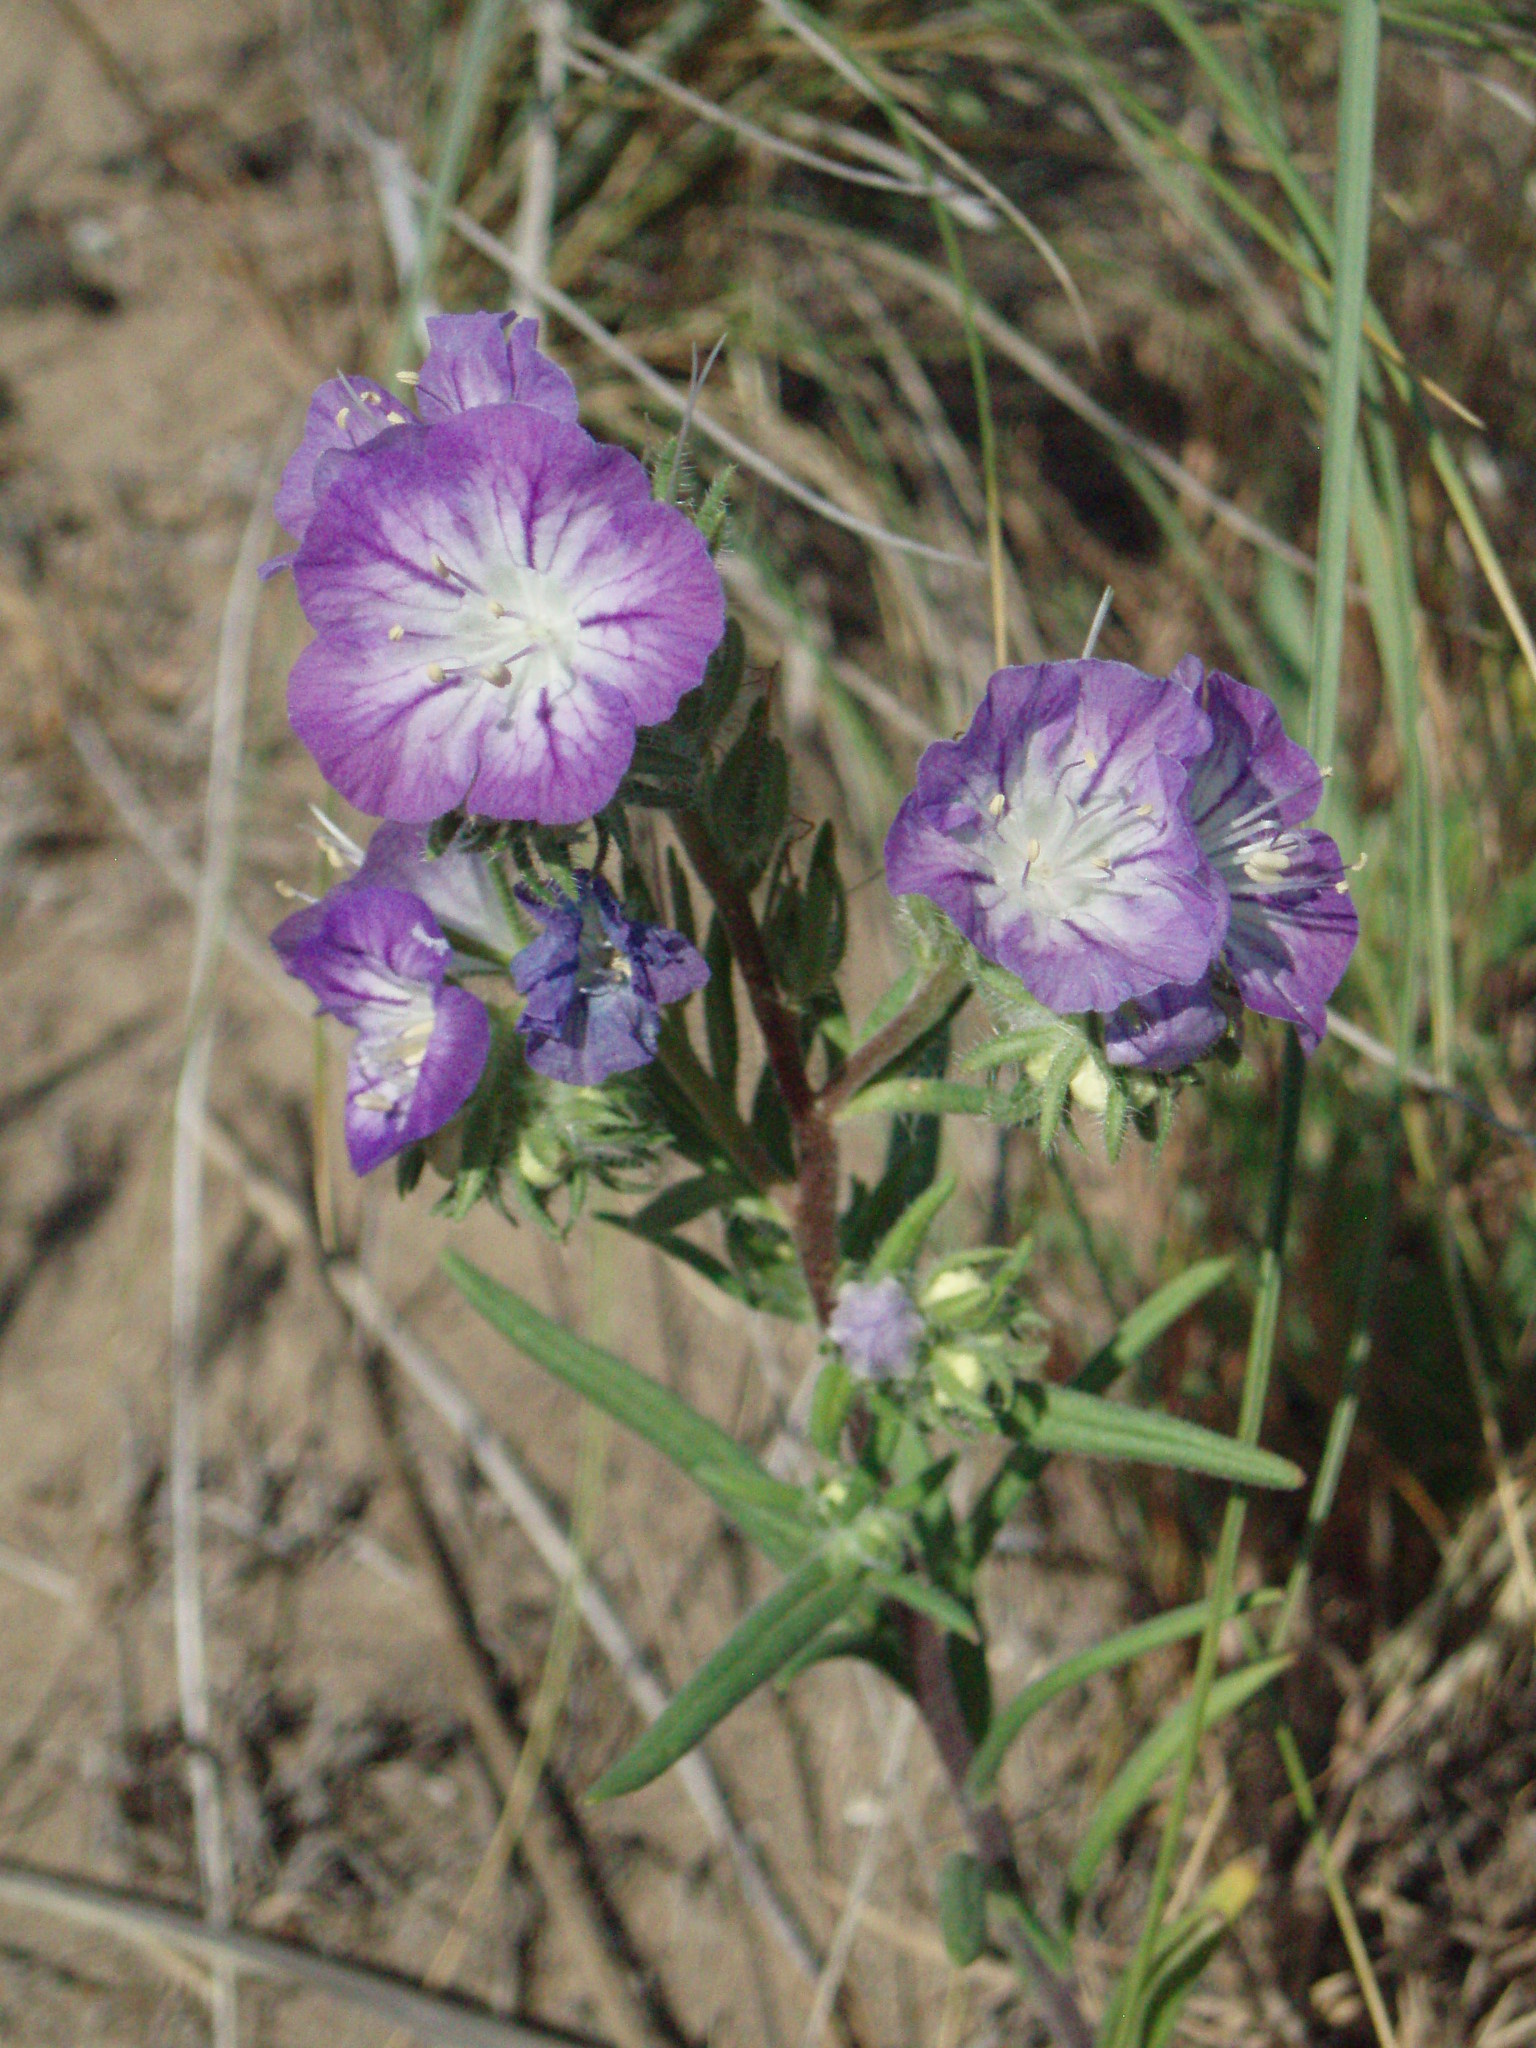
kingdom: Plantae
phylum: Tracheophyta
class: Magnoliopsida
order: Boraginales
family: Hydrophyllaceae
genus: Phacelia
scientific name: Phacelia linearis
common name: Linear-leaved phacelia
